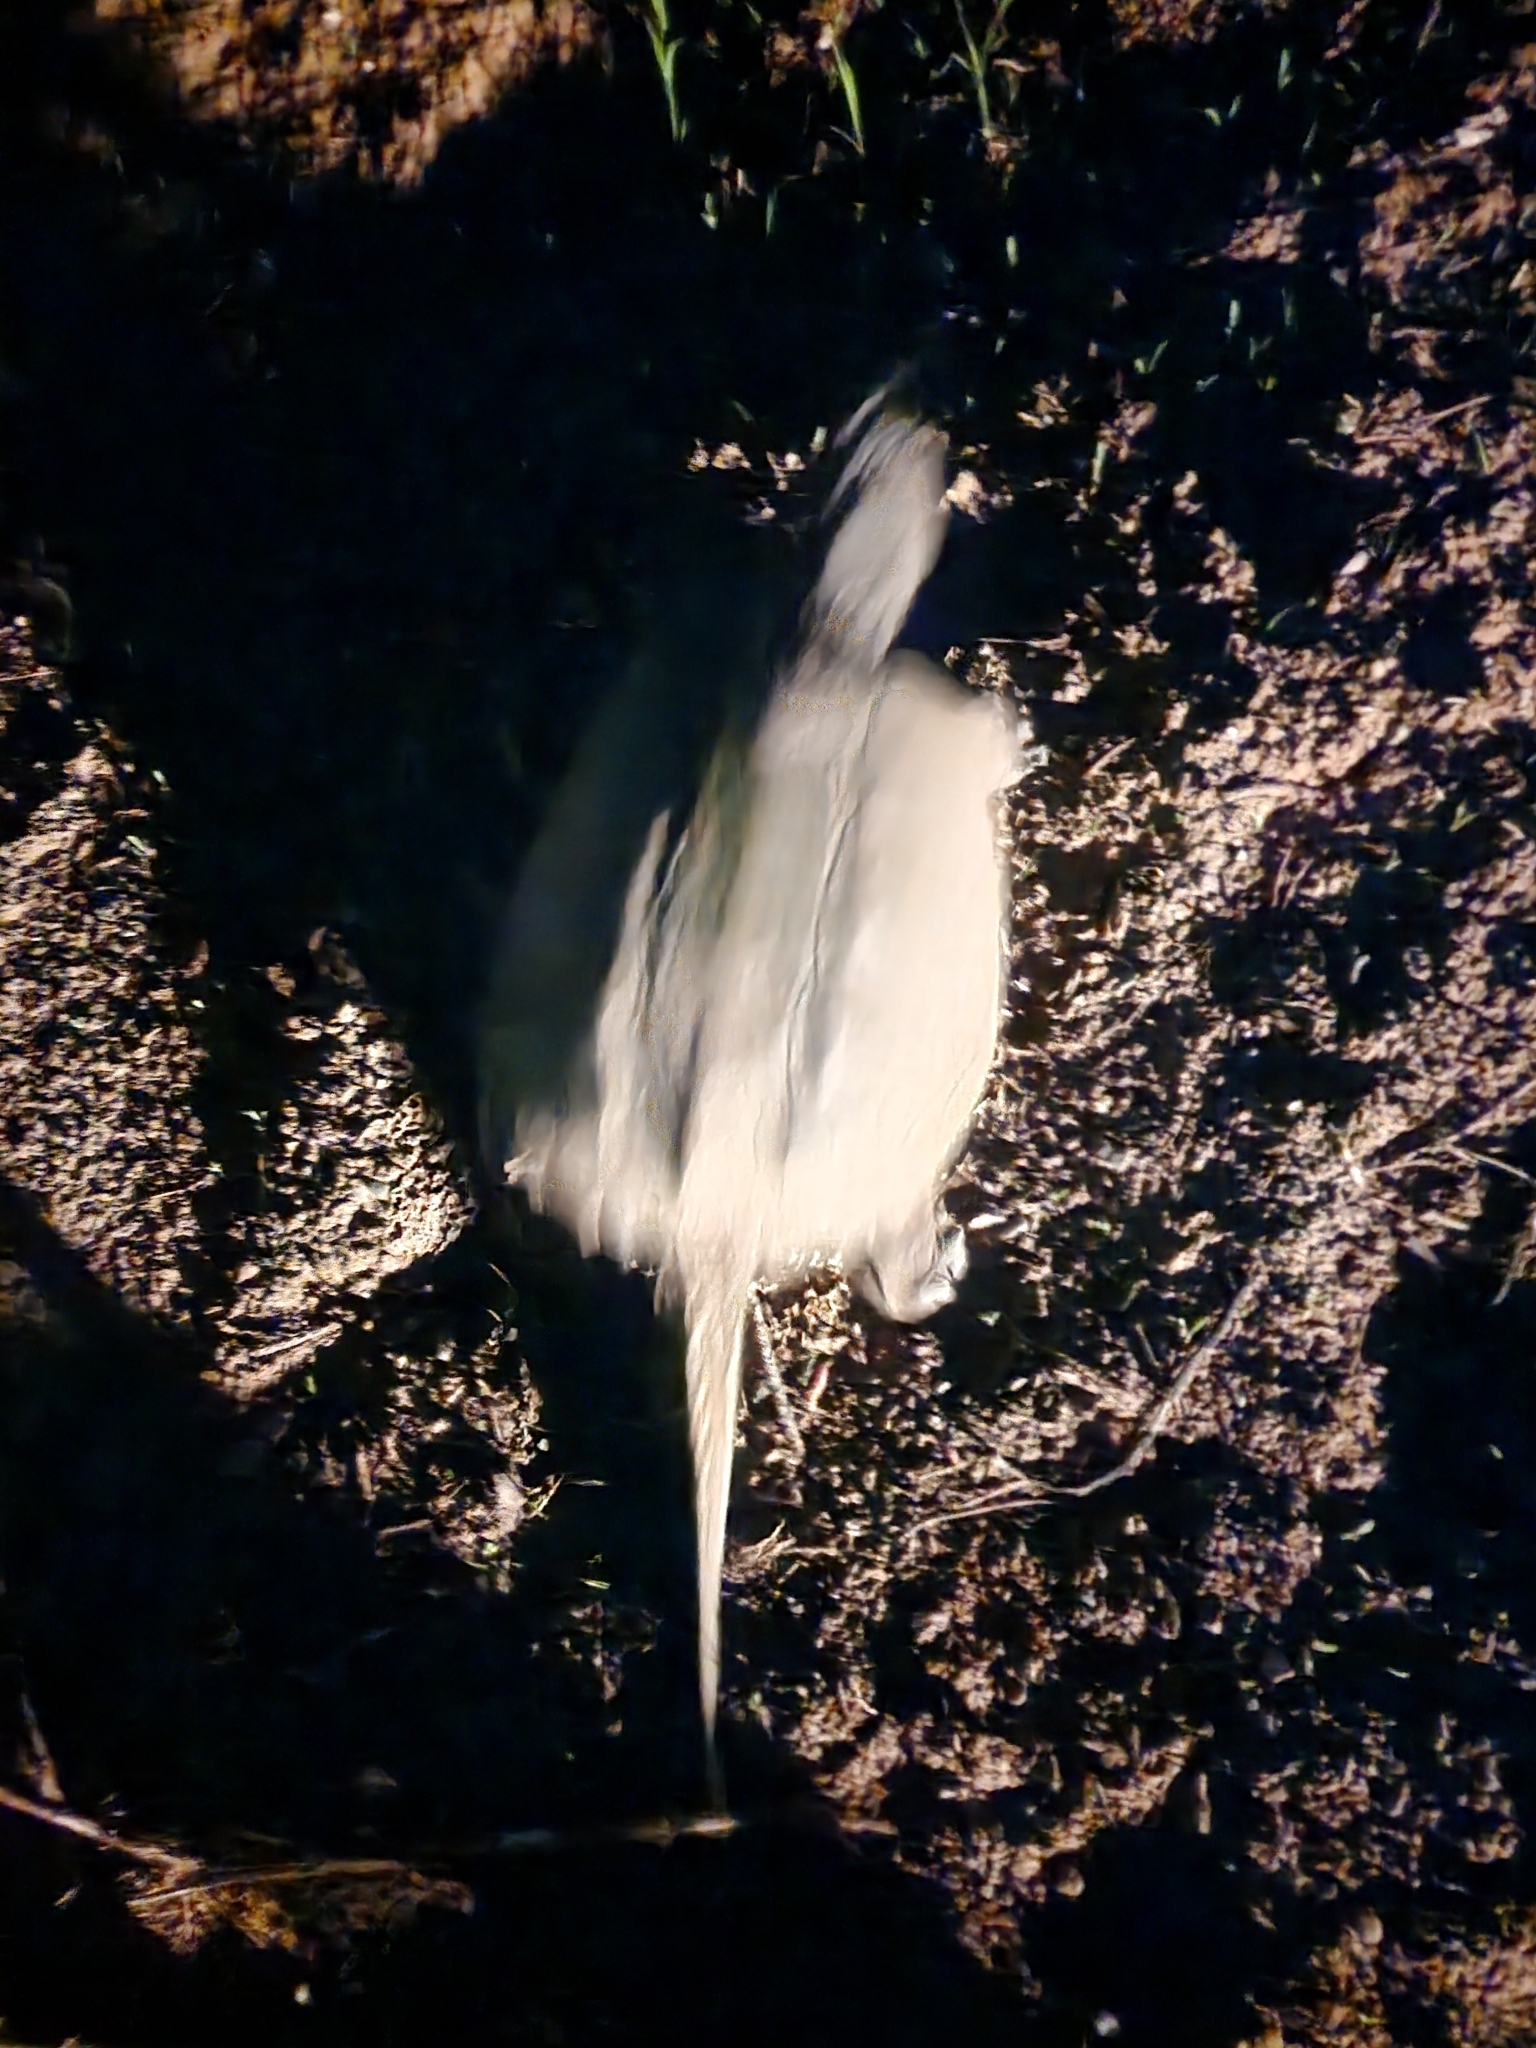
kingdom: Animalia
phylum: Chordata
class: Testudines
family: Chelydridae
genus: Chelydra
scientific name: Chelydra serpentina
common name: Common snapping turtle
